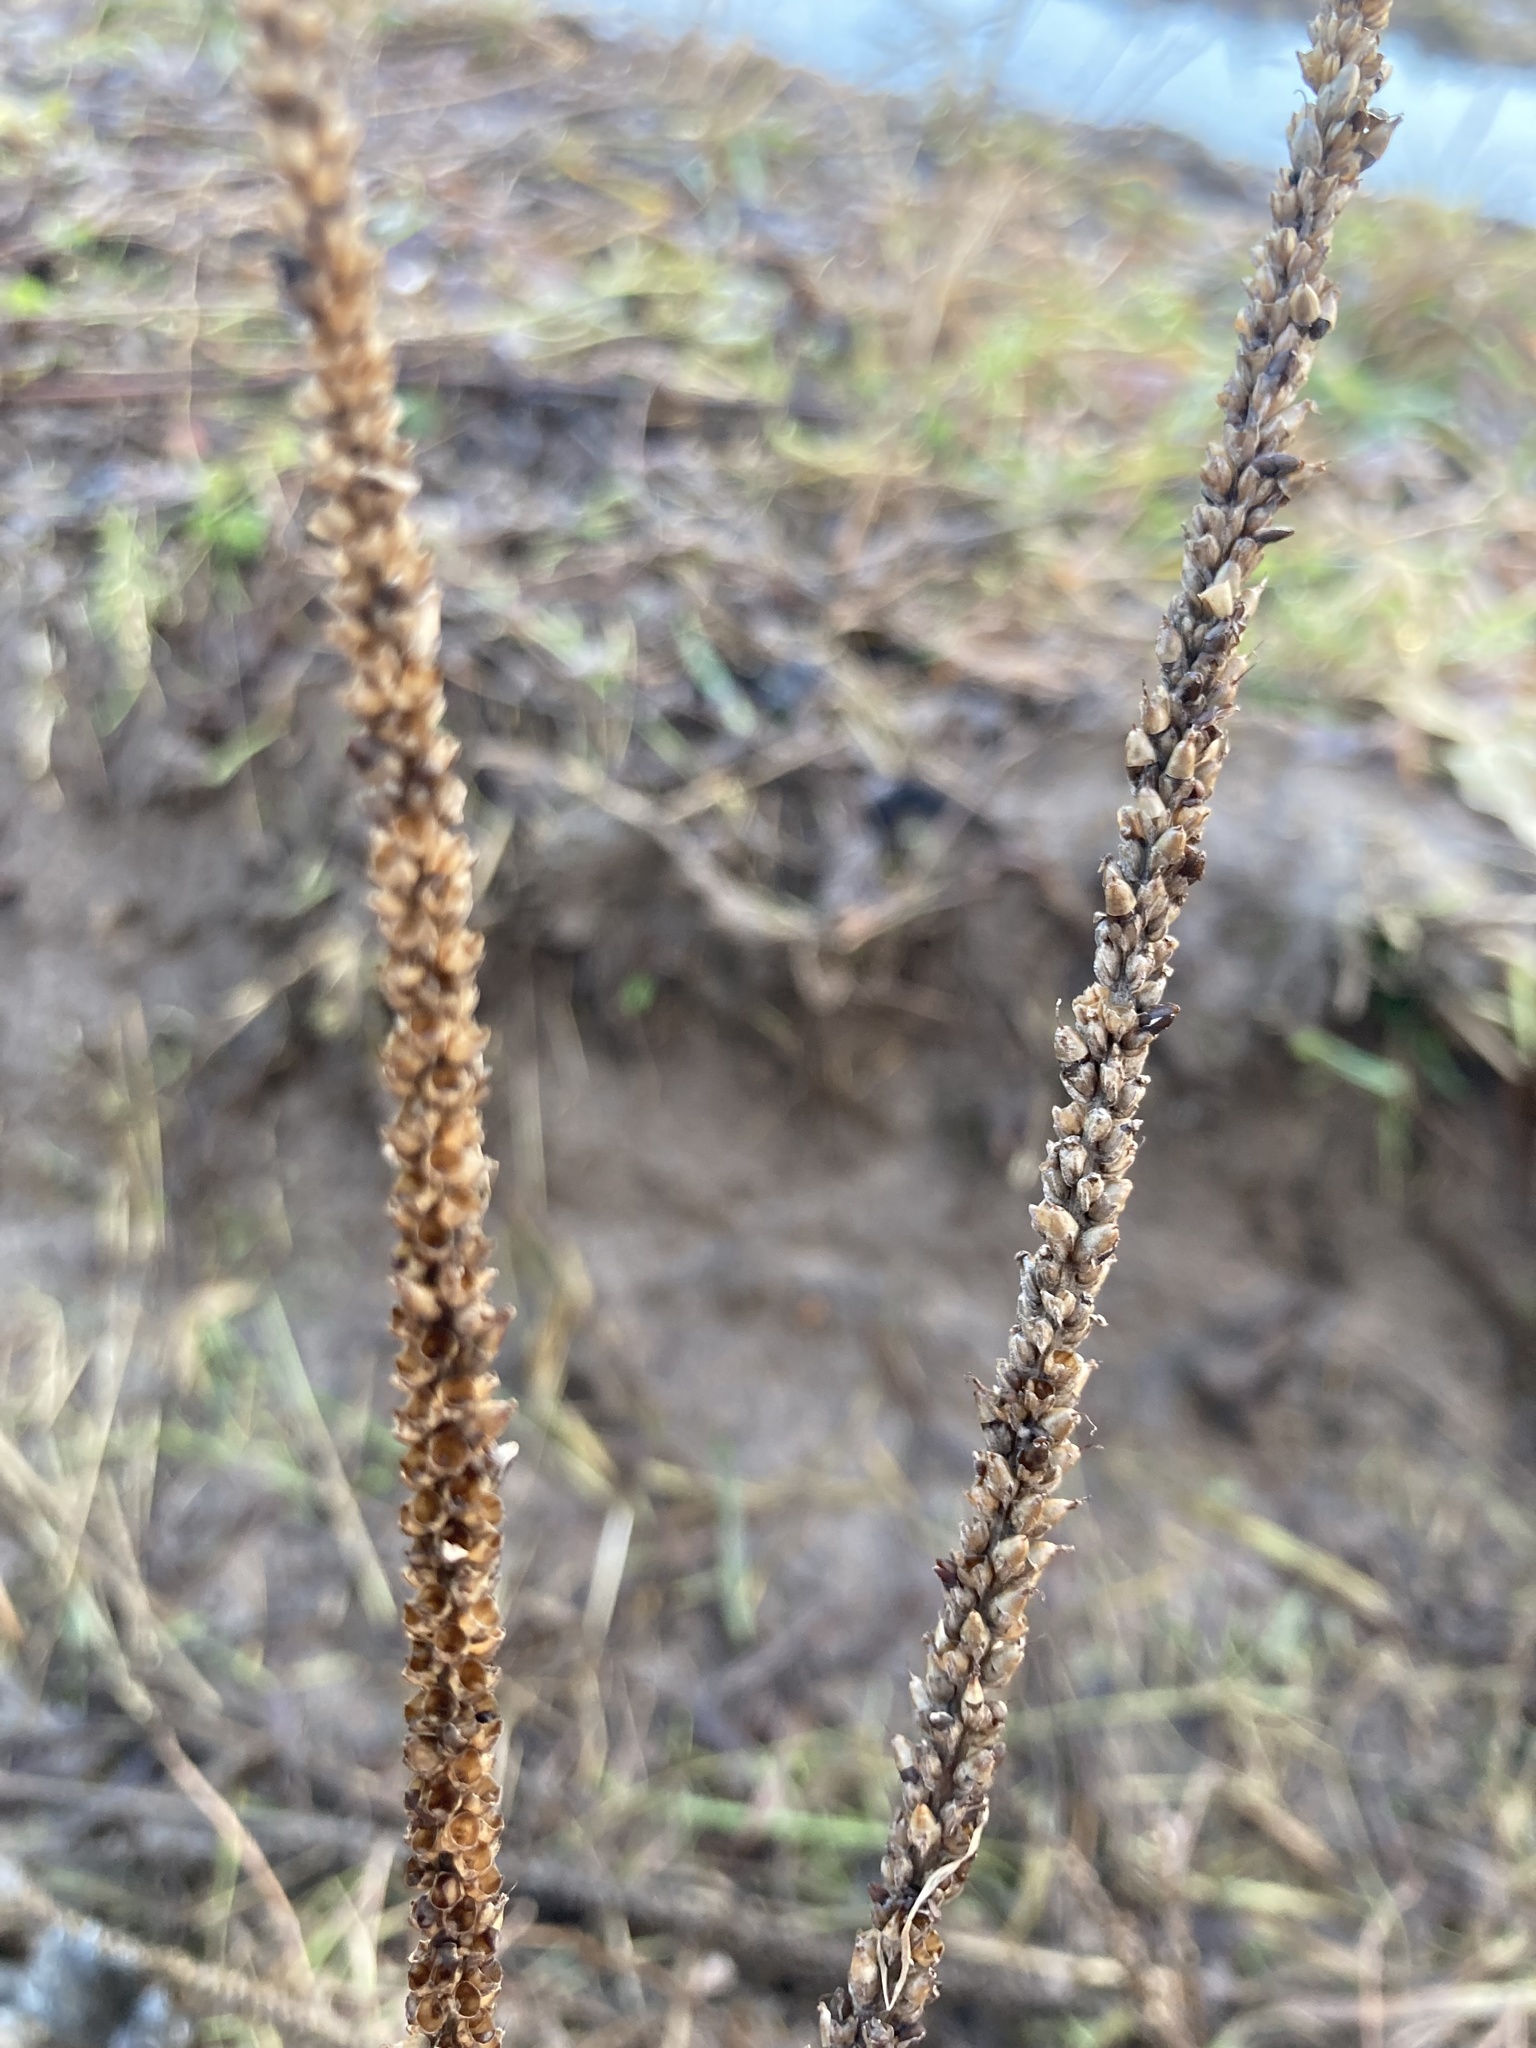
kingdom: Plantae
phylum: Tracheophyta
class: Magnoliopsida
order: Lamiales
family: Plantaginaceae
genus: Plantago
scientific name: Plantago major
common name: Common plantain
